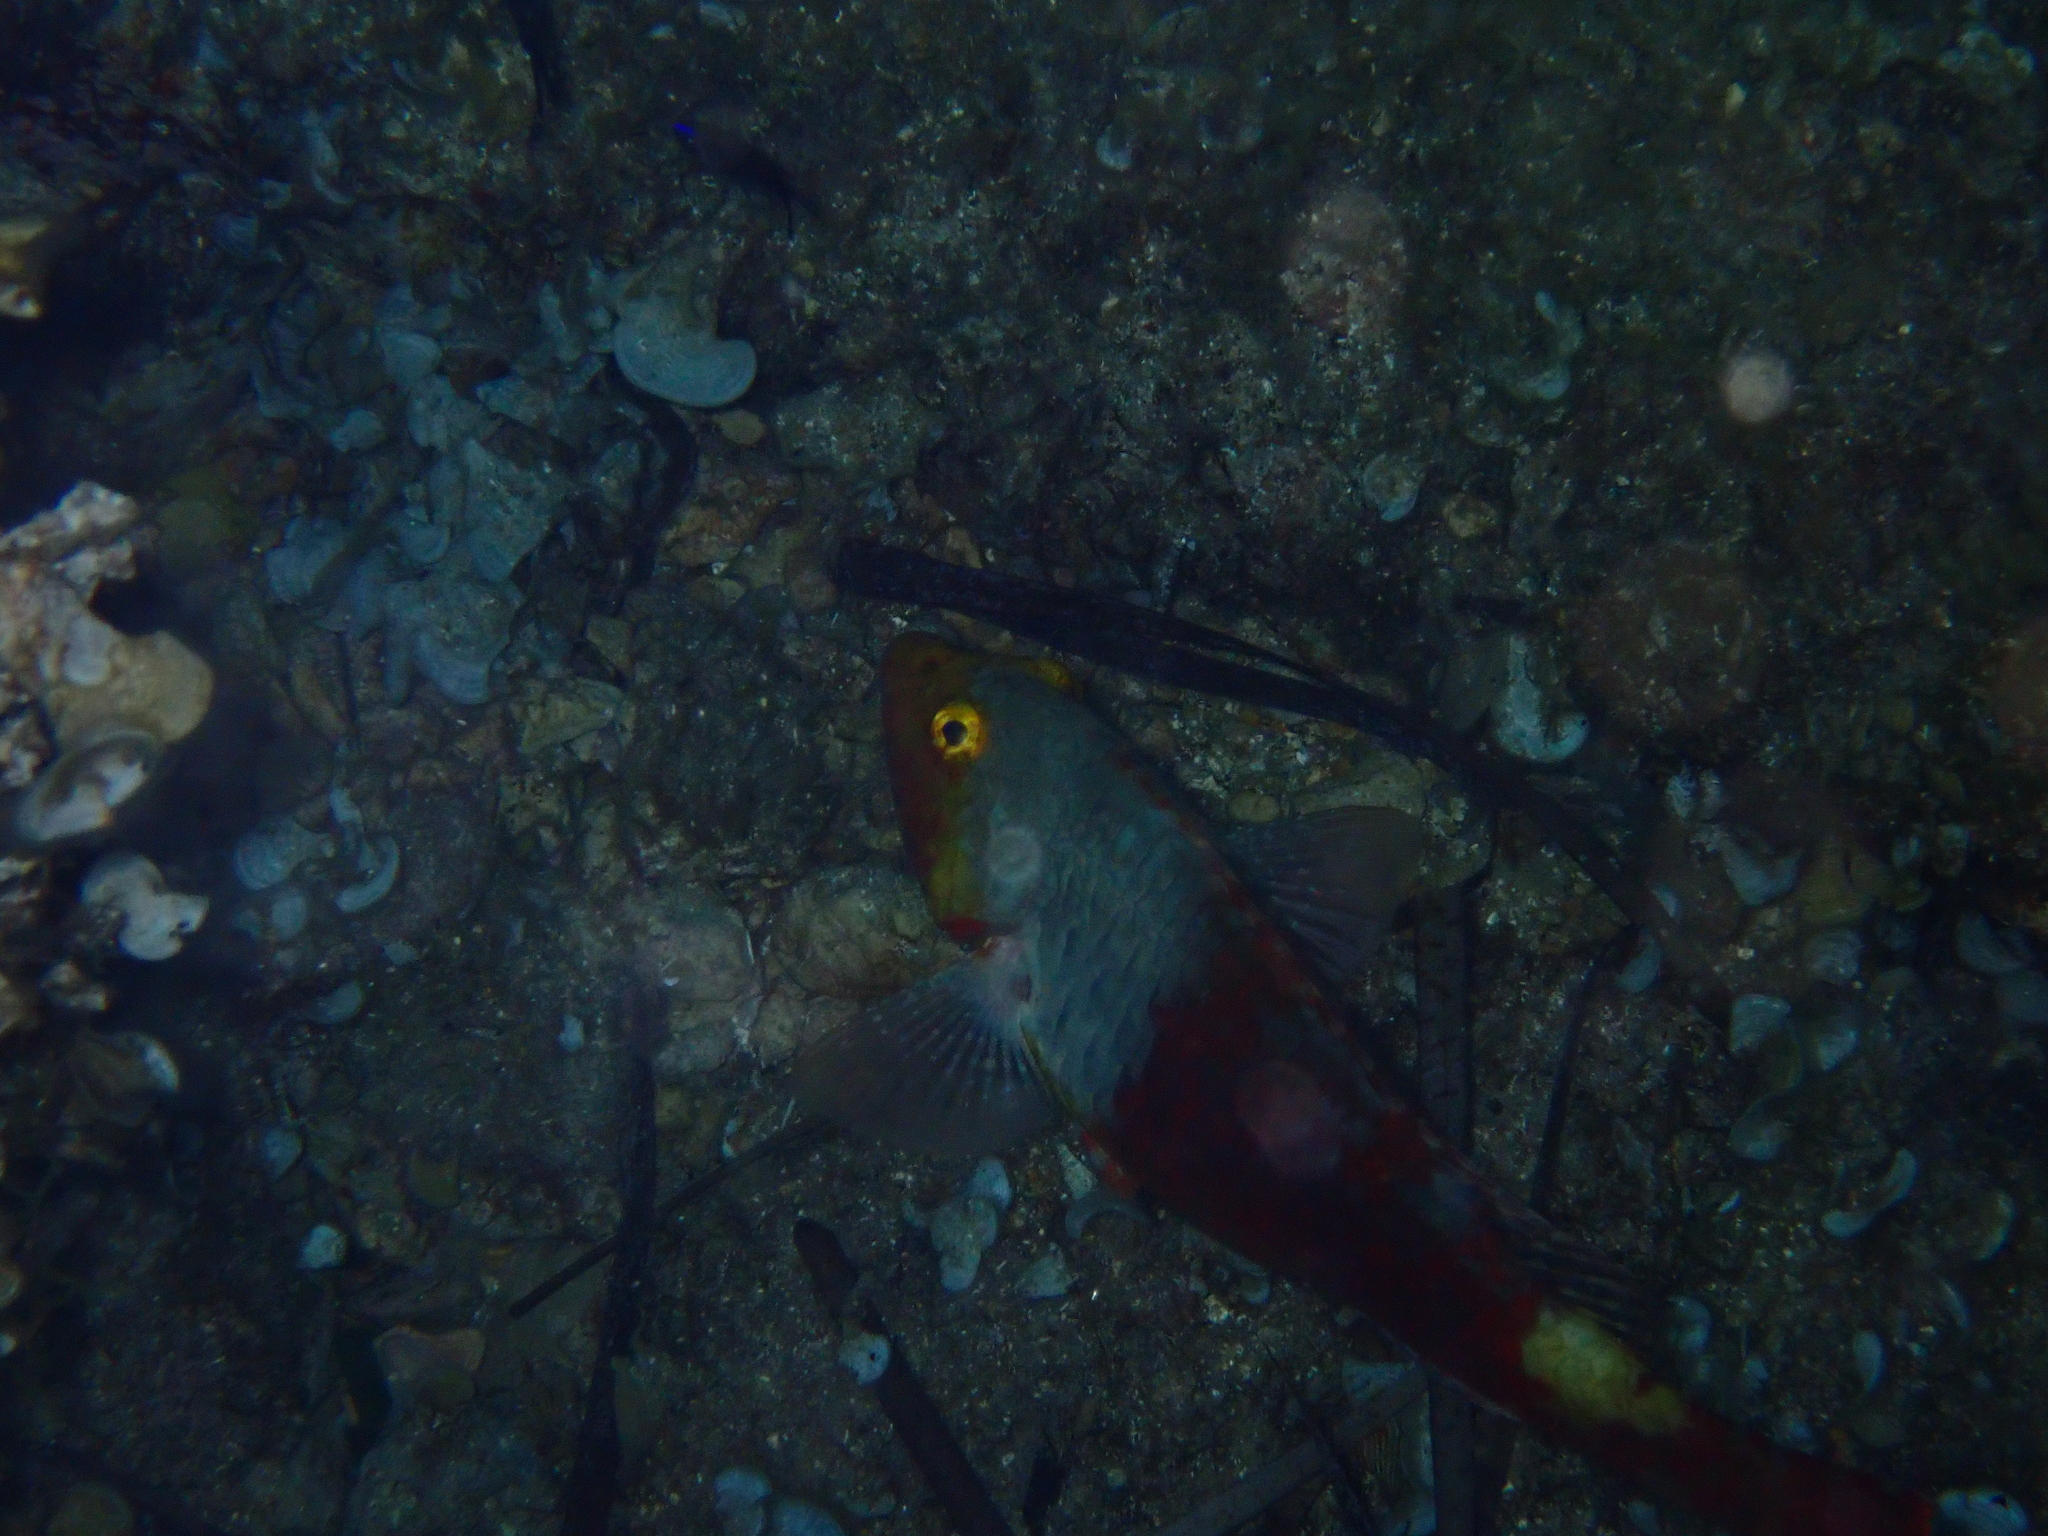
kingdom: Animalia
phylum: Chordata
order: Perciformes
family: Scaridae
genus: Sparisoma
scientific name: Sparisoma cretense
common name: Parrotfish
